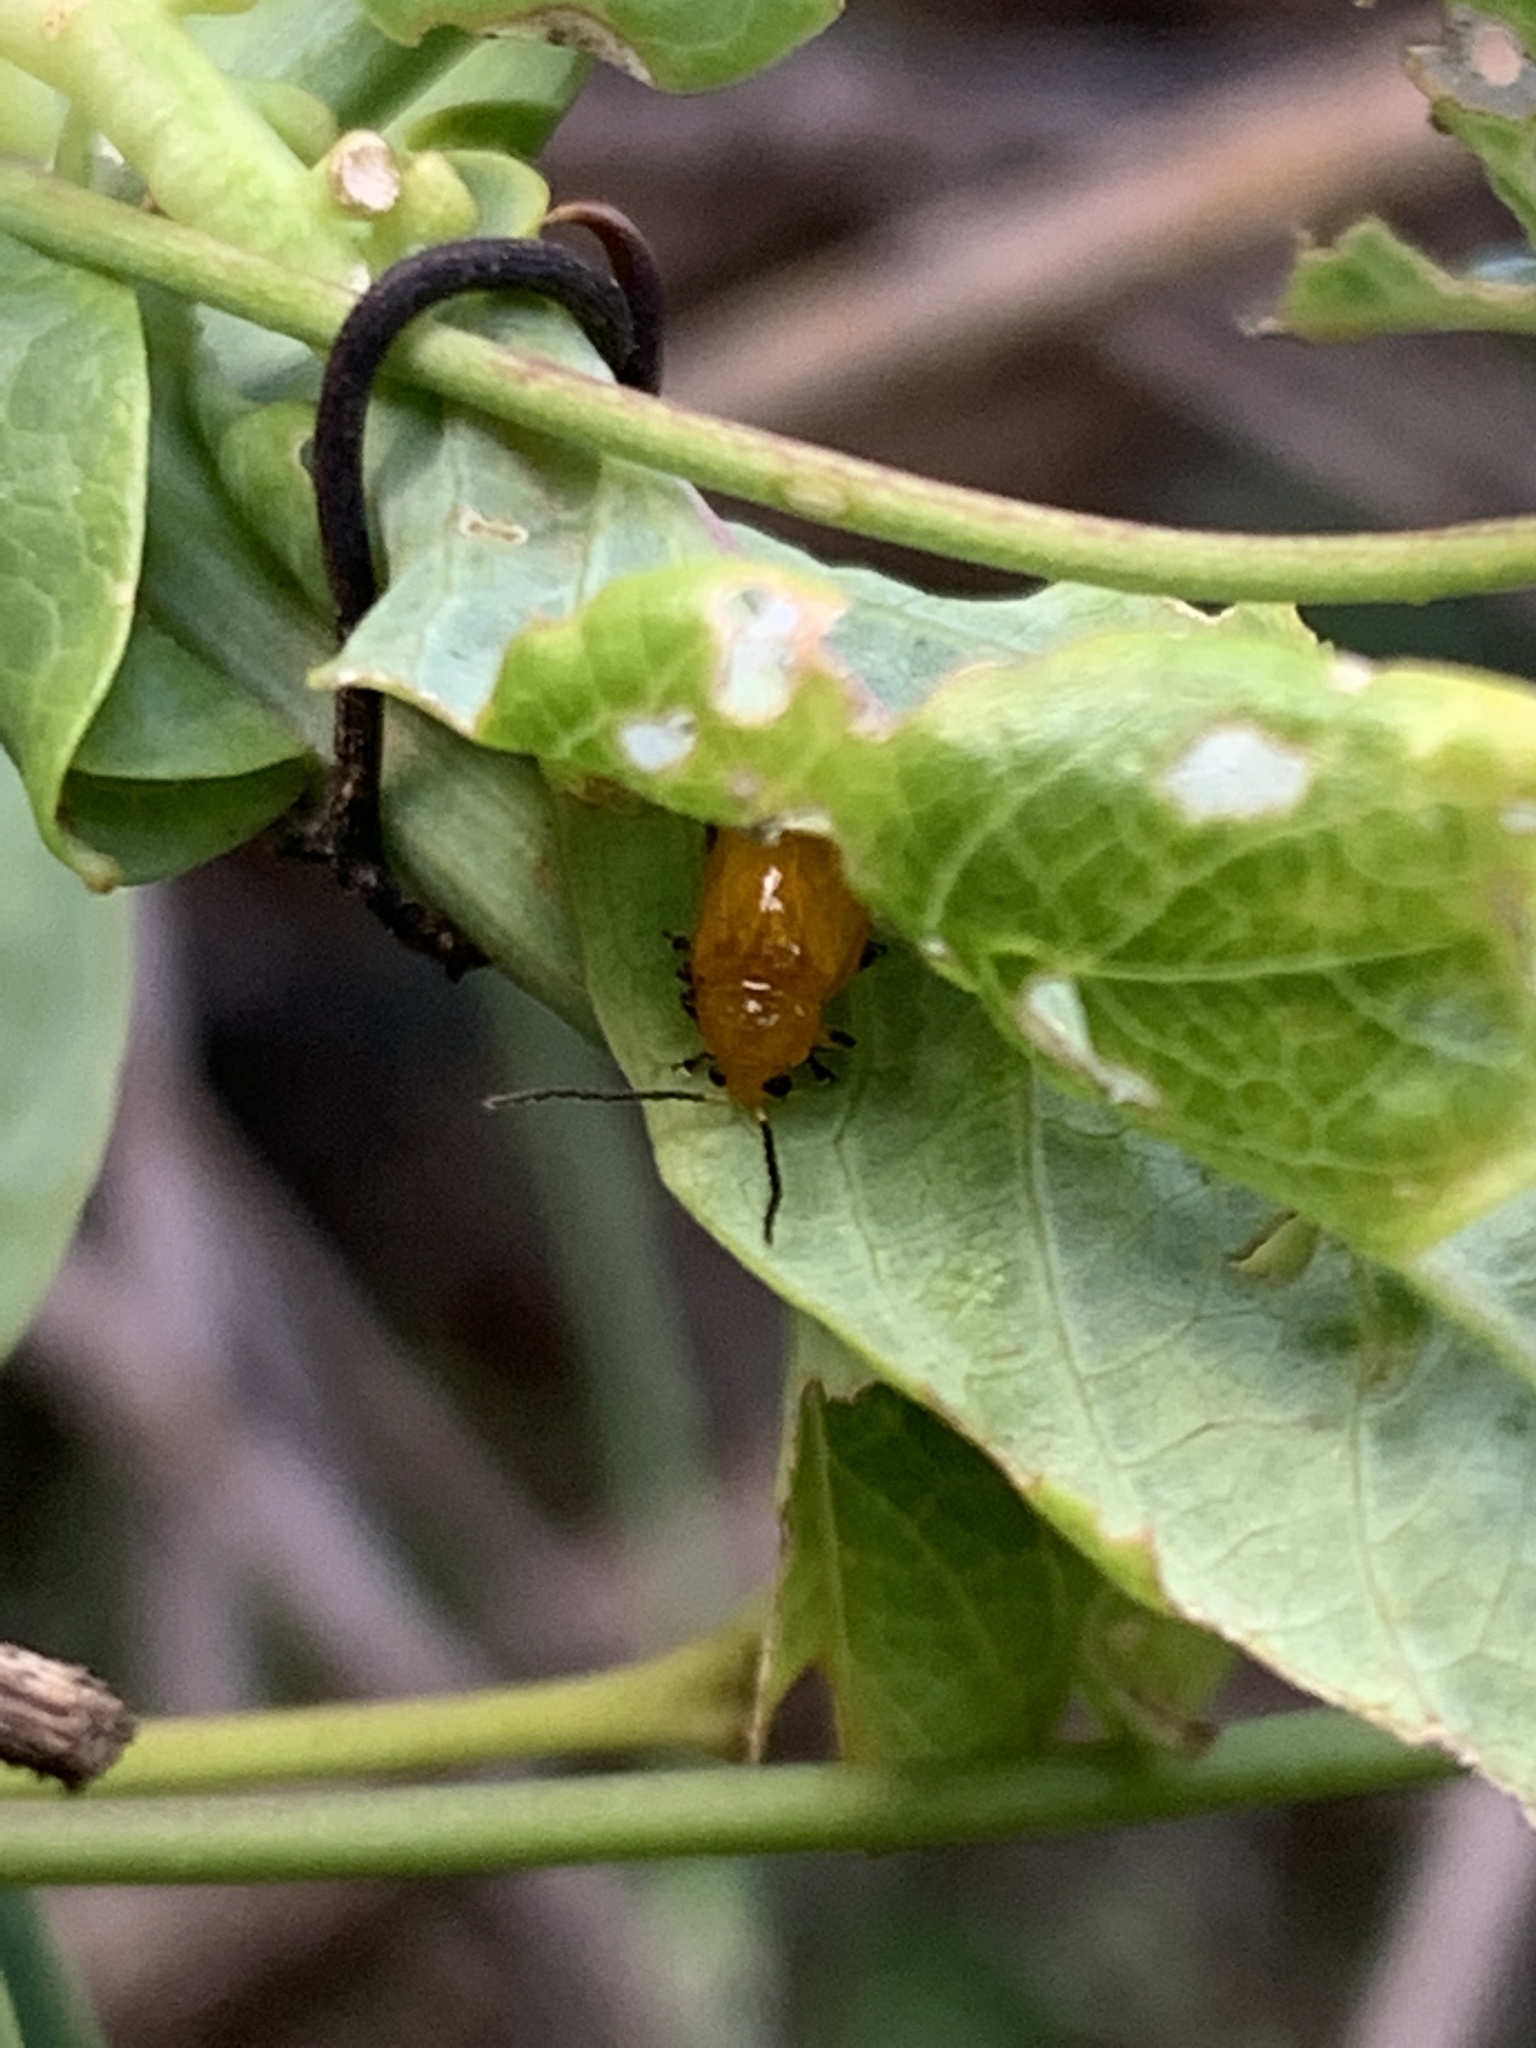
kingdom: Animalia
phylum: Arthropoda
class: Insecta
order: Coleoptera
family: Chrysomelidae
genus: Parchicola
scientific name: Parchicola
